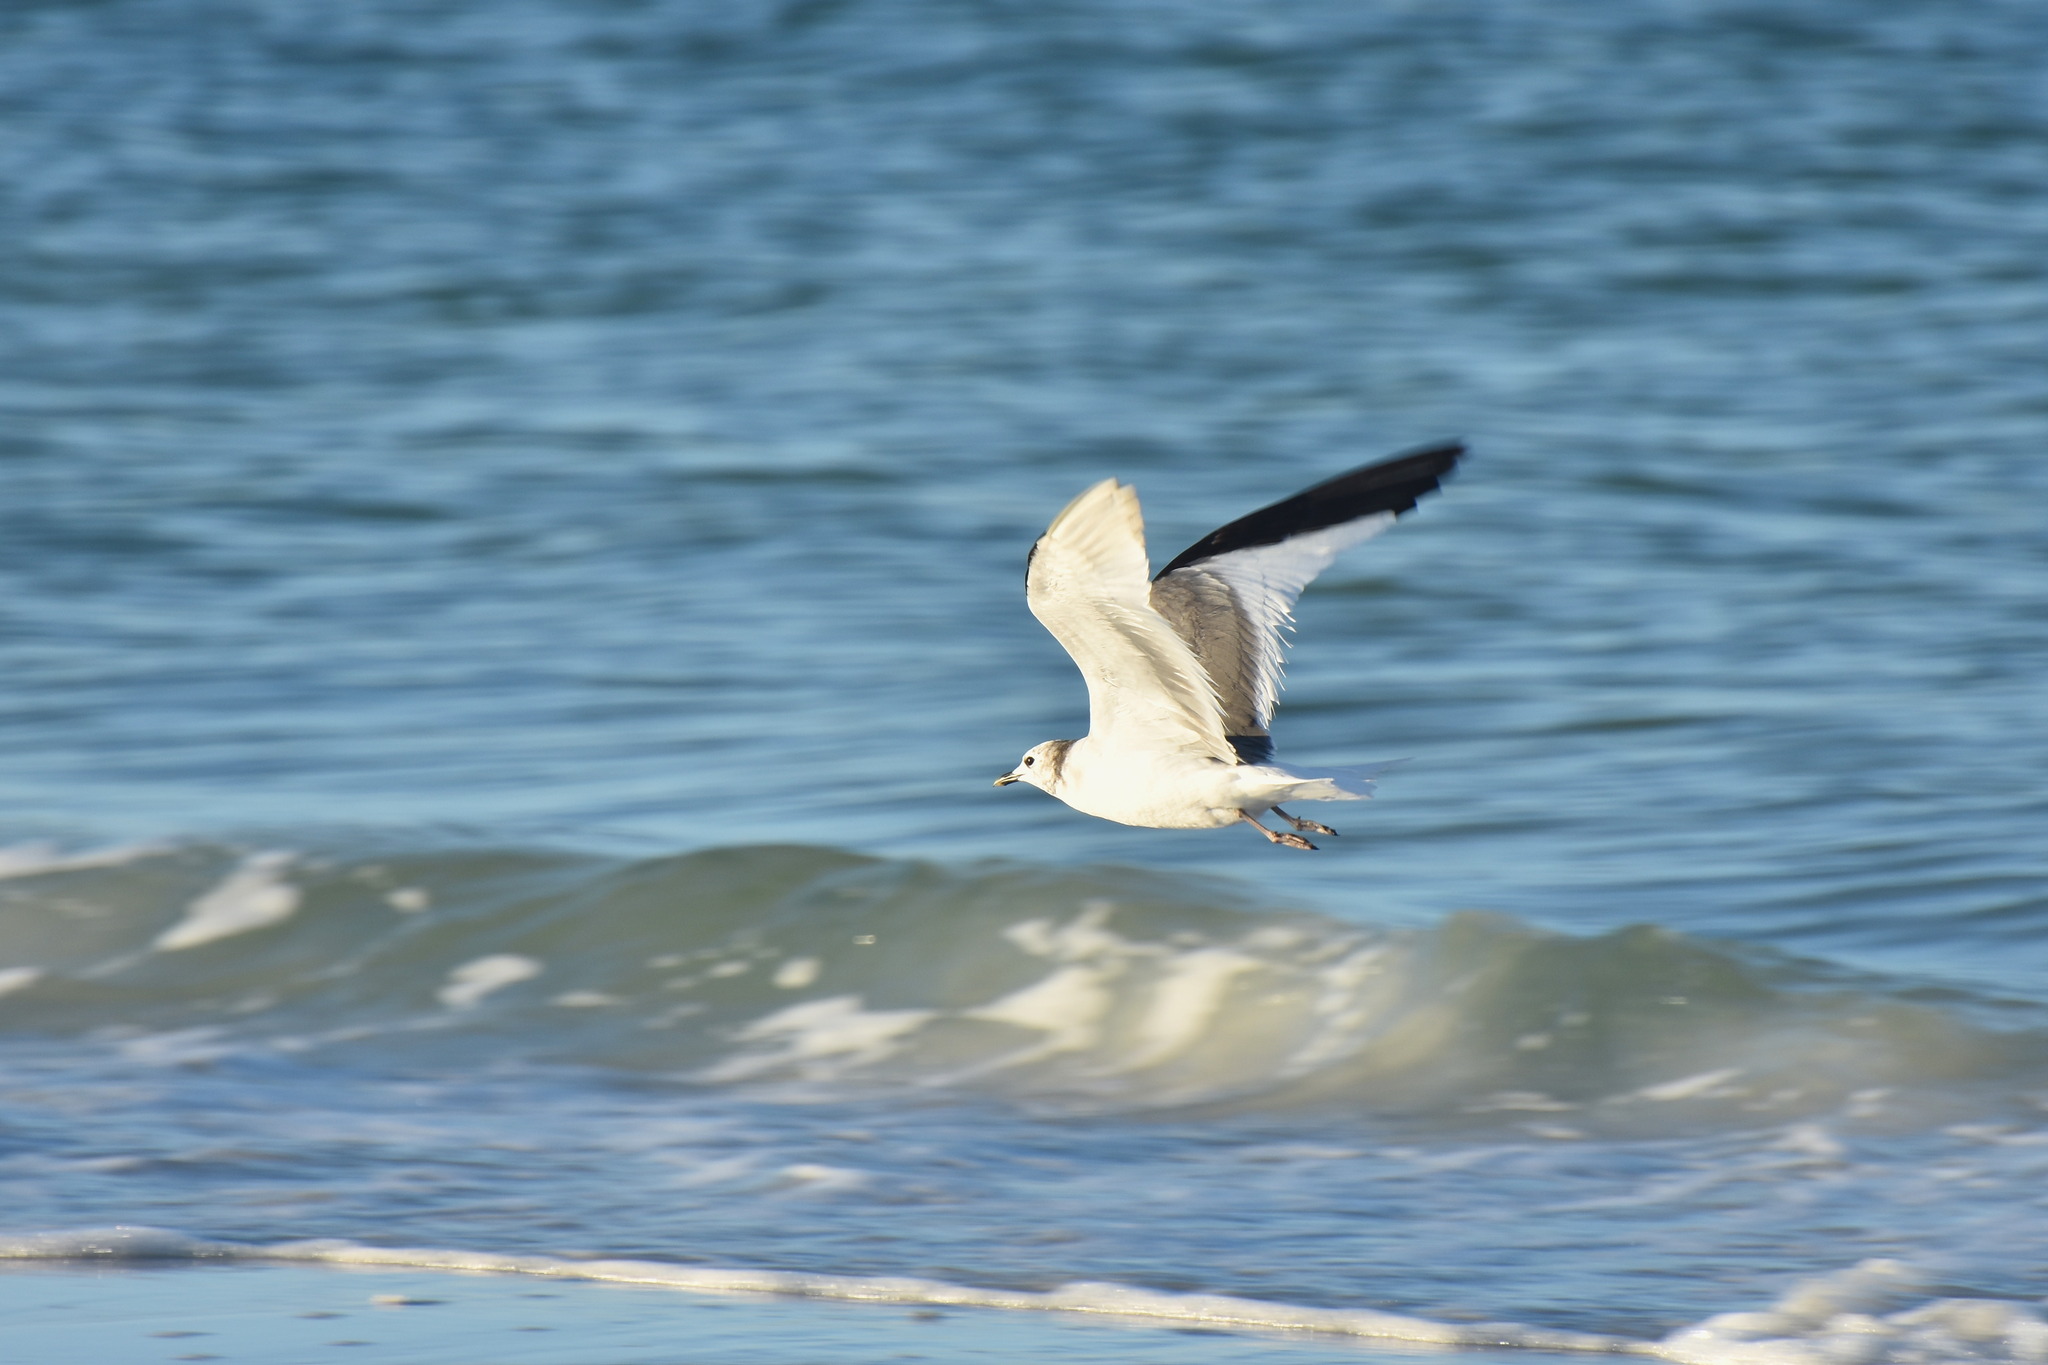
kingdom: Animalia
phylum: Chordata
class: Aves
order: Charadriiformes
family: Laridae
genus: Xema
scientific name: Xema sabini
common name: Sabine's gull
